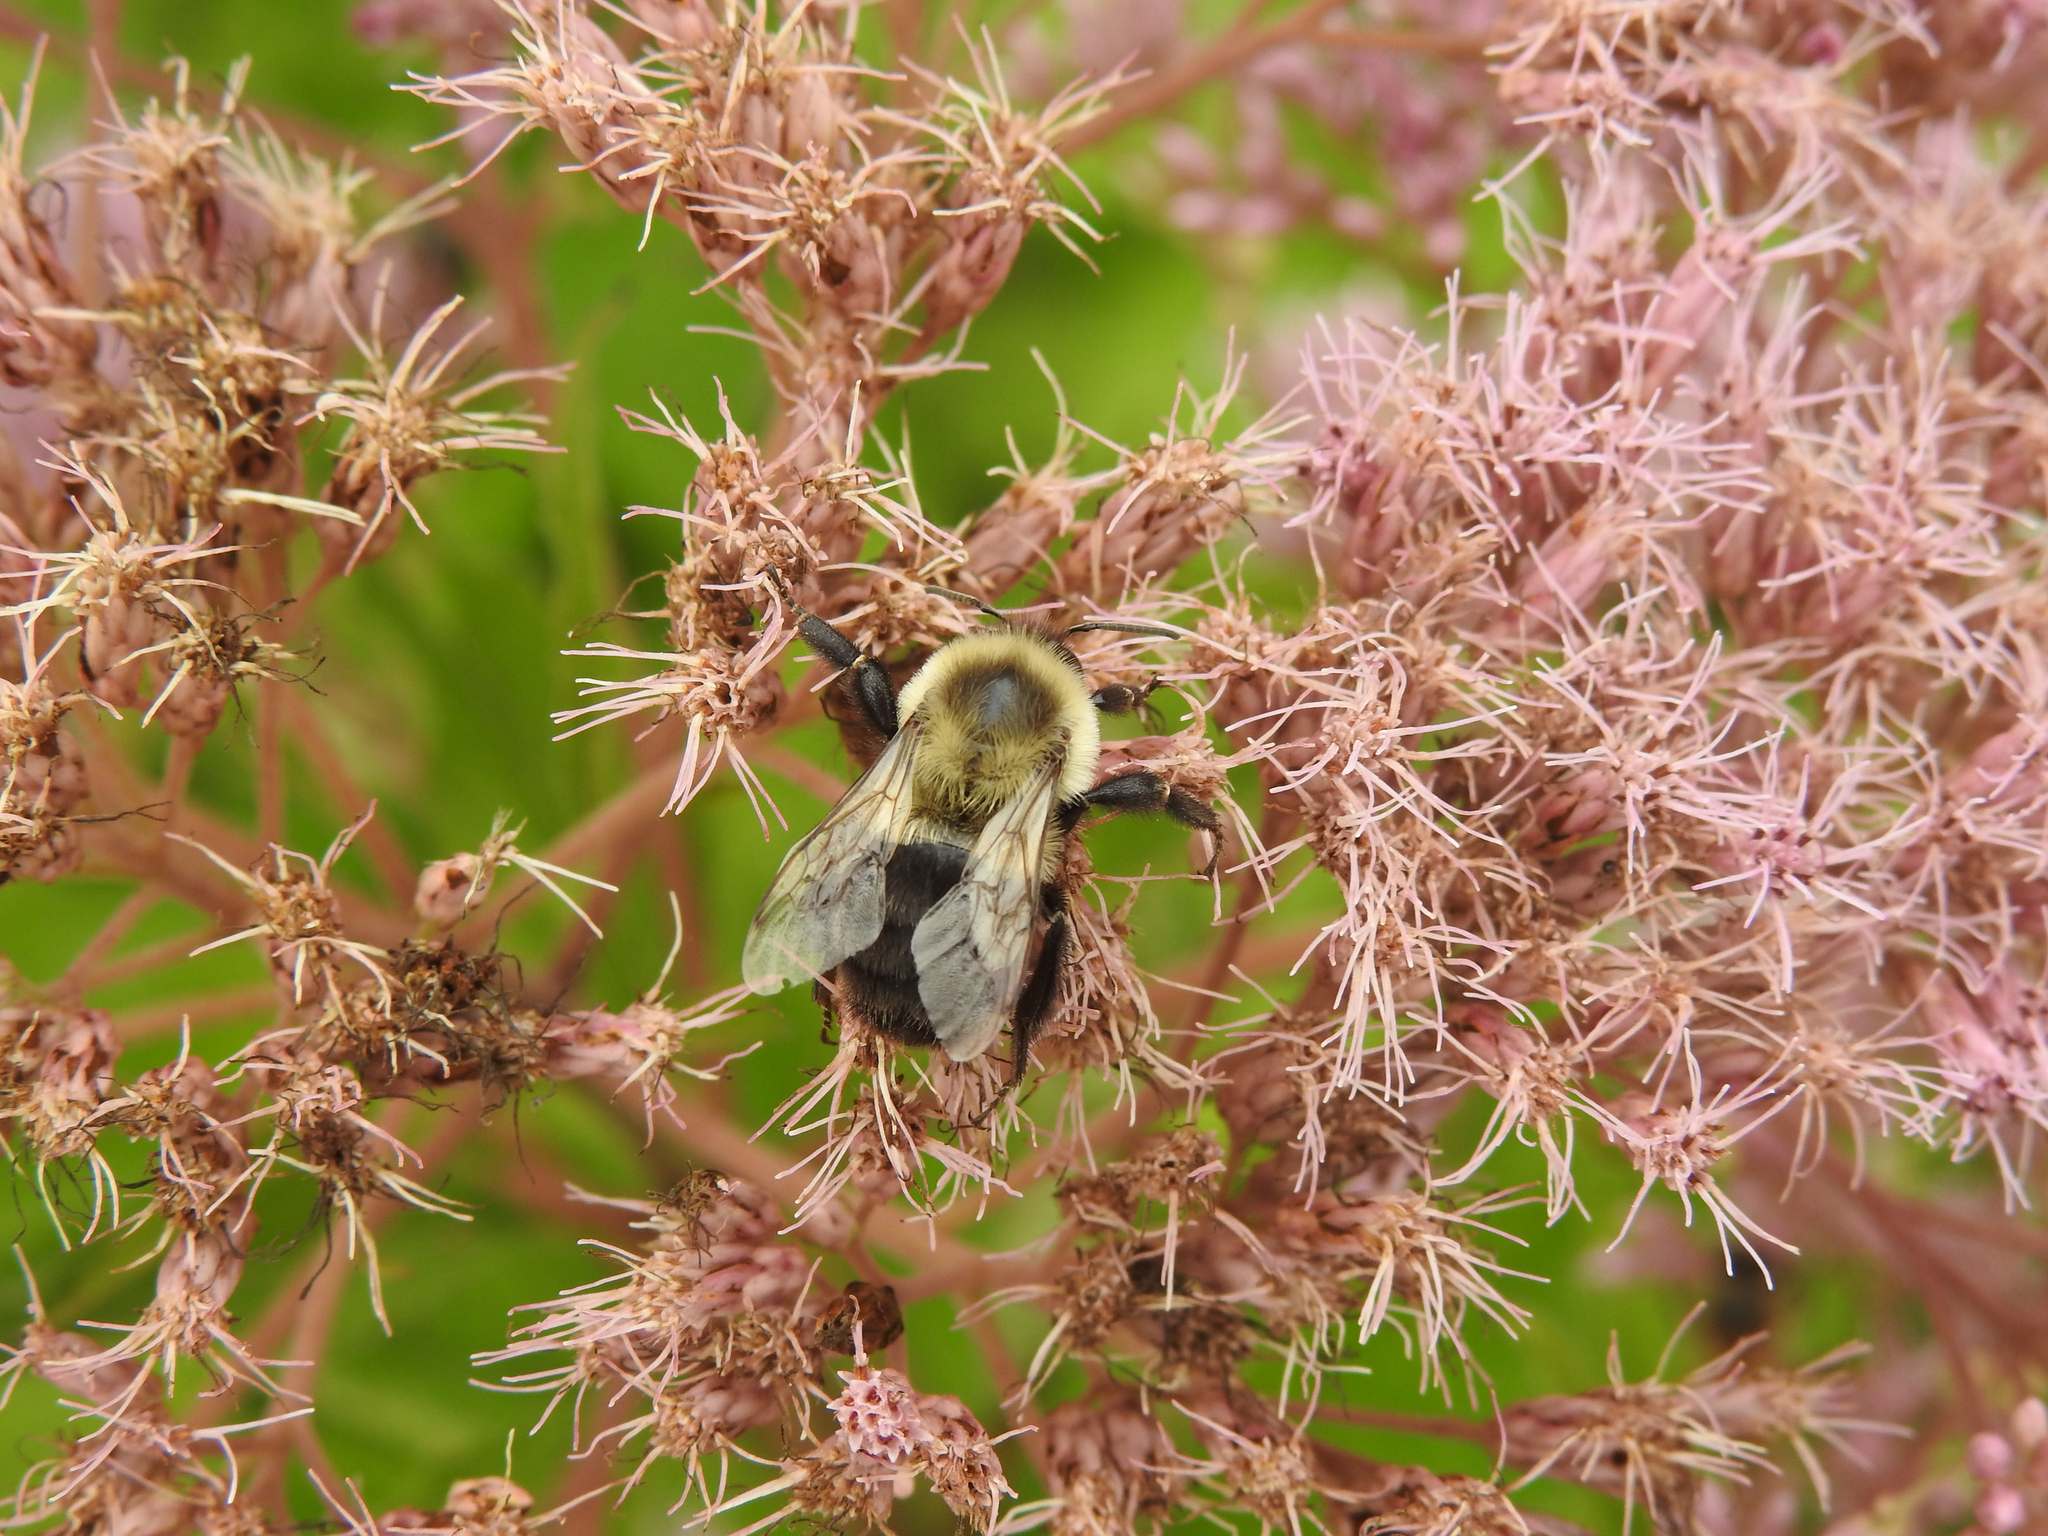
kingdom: Animalia
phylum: Arthropoda
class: Insecta
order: Hymenoptera
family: Apidae
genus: Bombus
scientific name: Bombus impatiens
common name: Common eastern bumble bee
